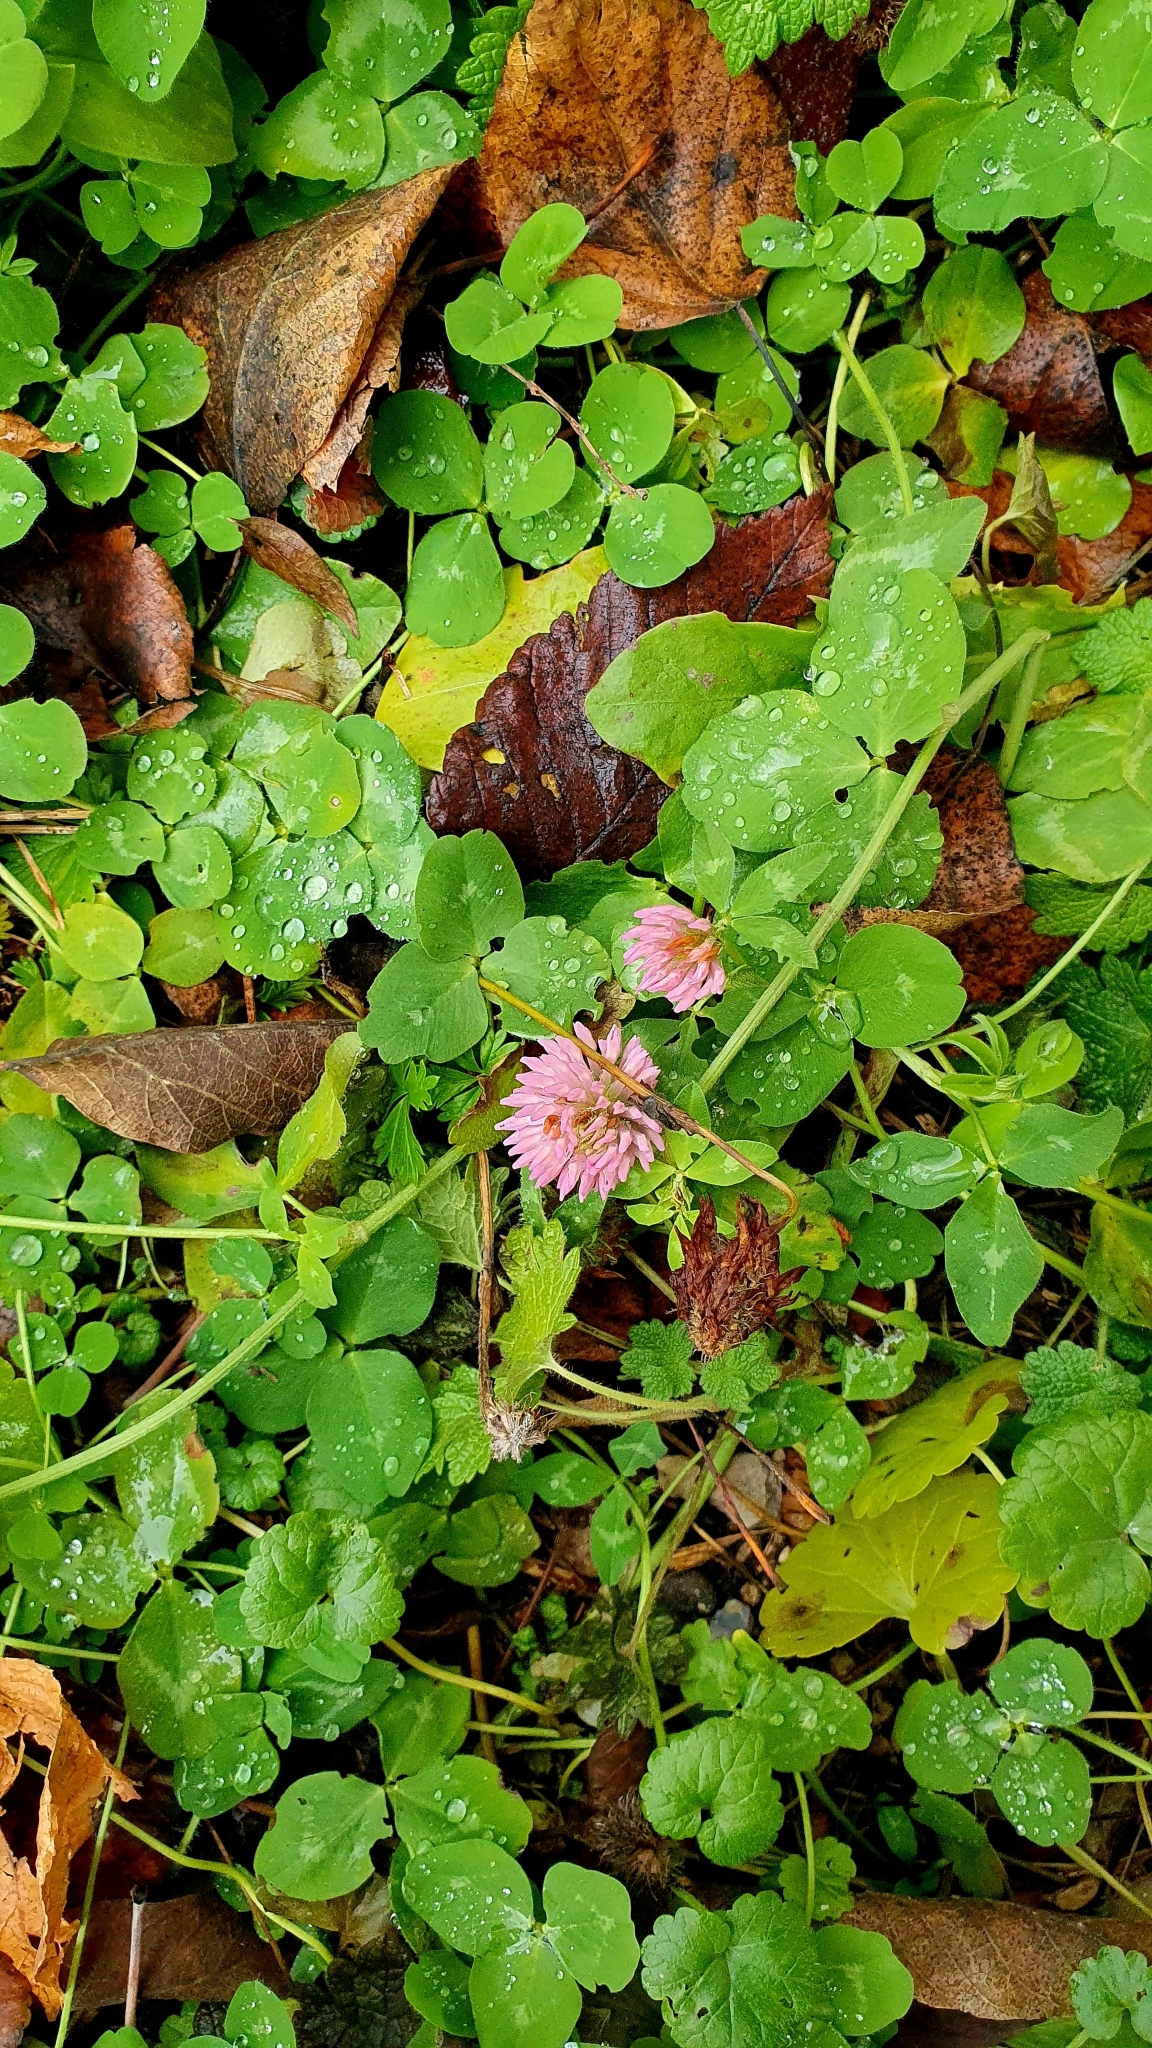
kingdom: Plantae
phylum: Tracheophyta
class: Magnoliopsida
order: Fabales
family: Fabaceae
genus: Trifolium
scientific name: Trifolium pratense
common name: Red clover
